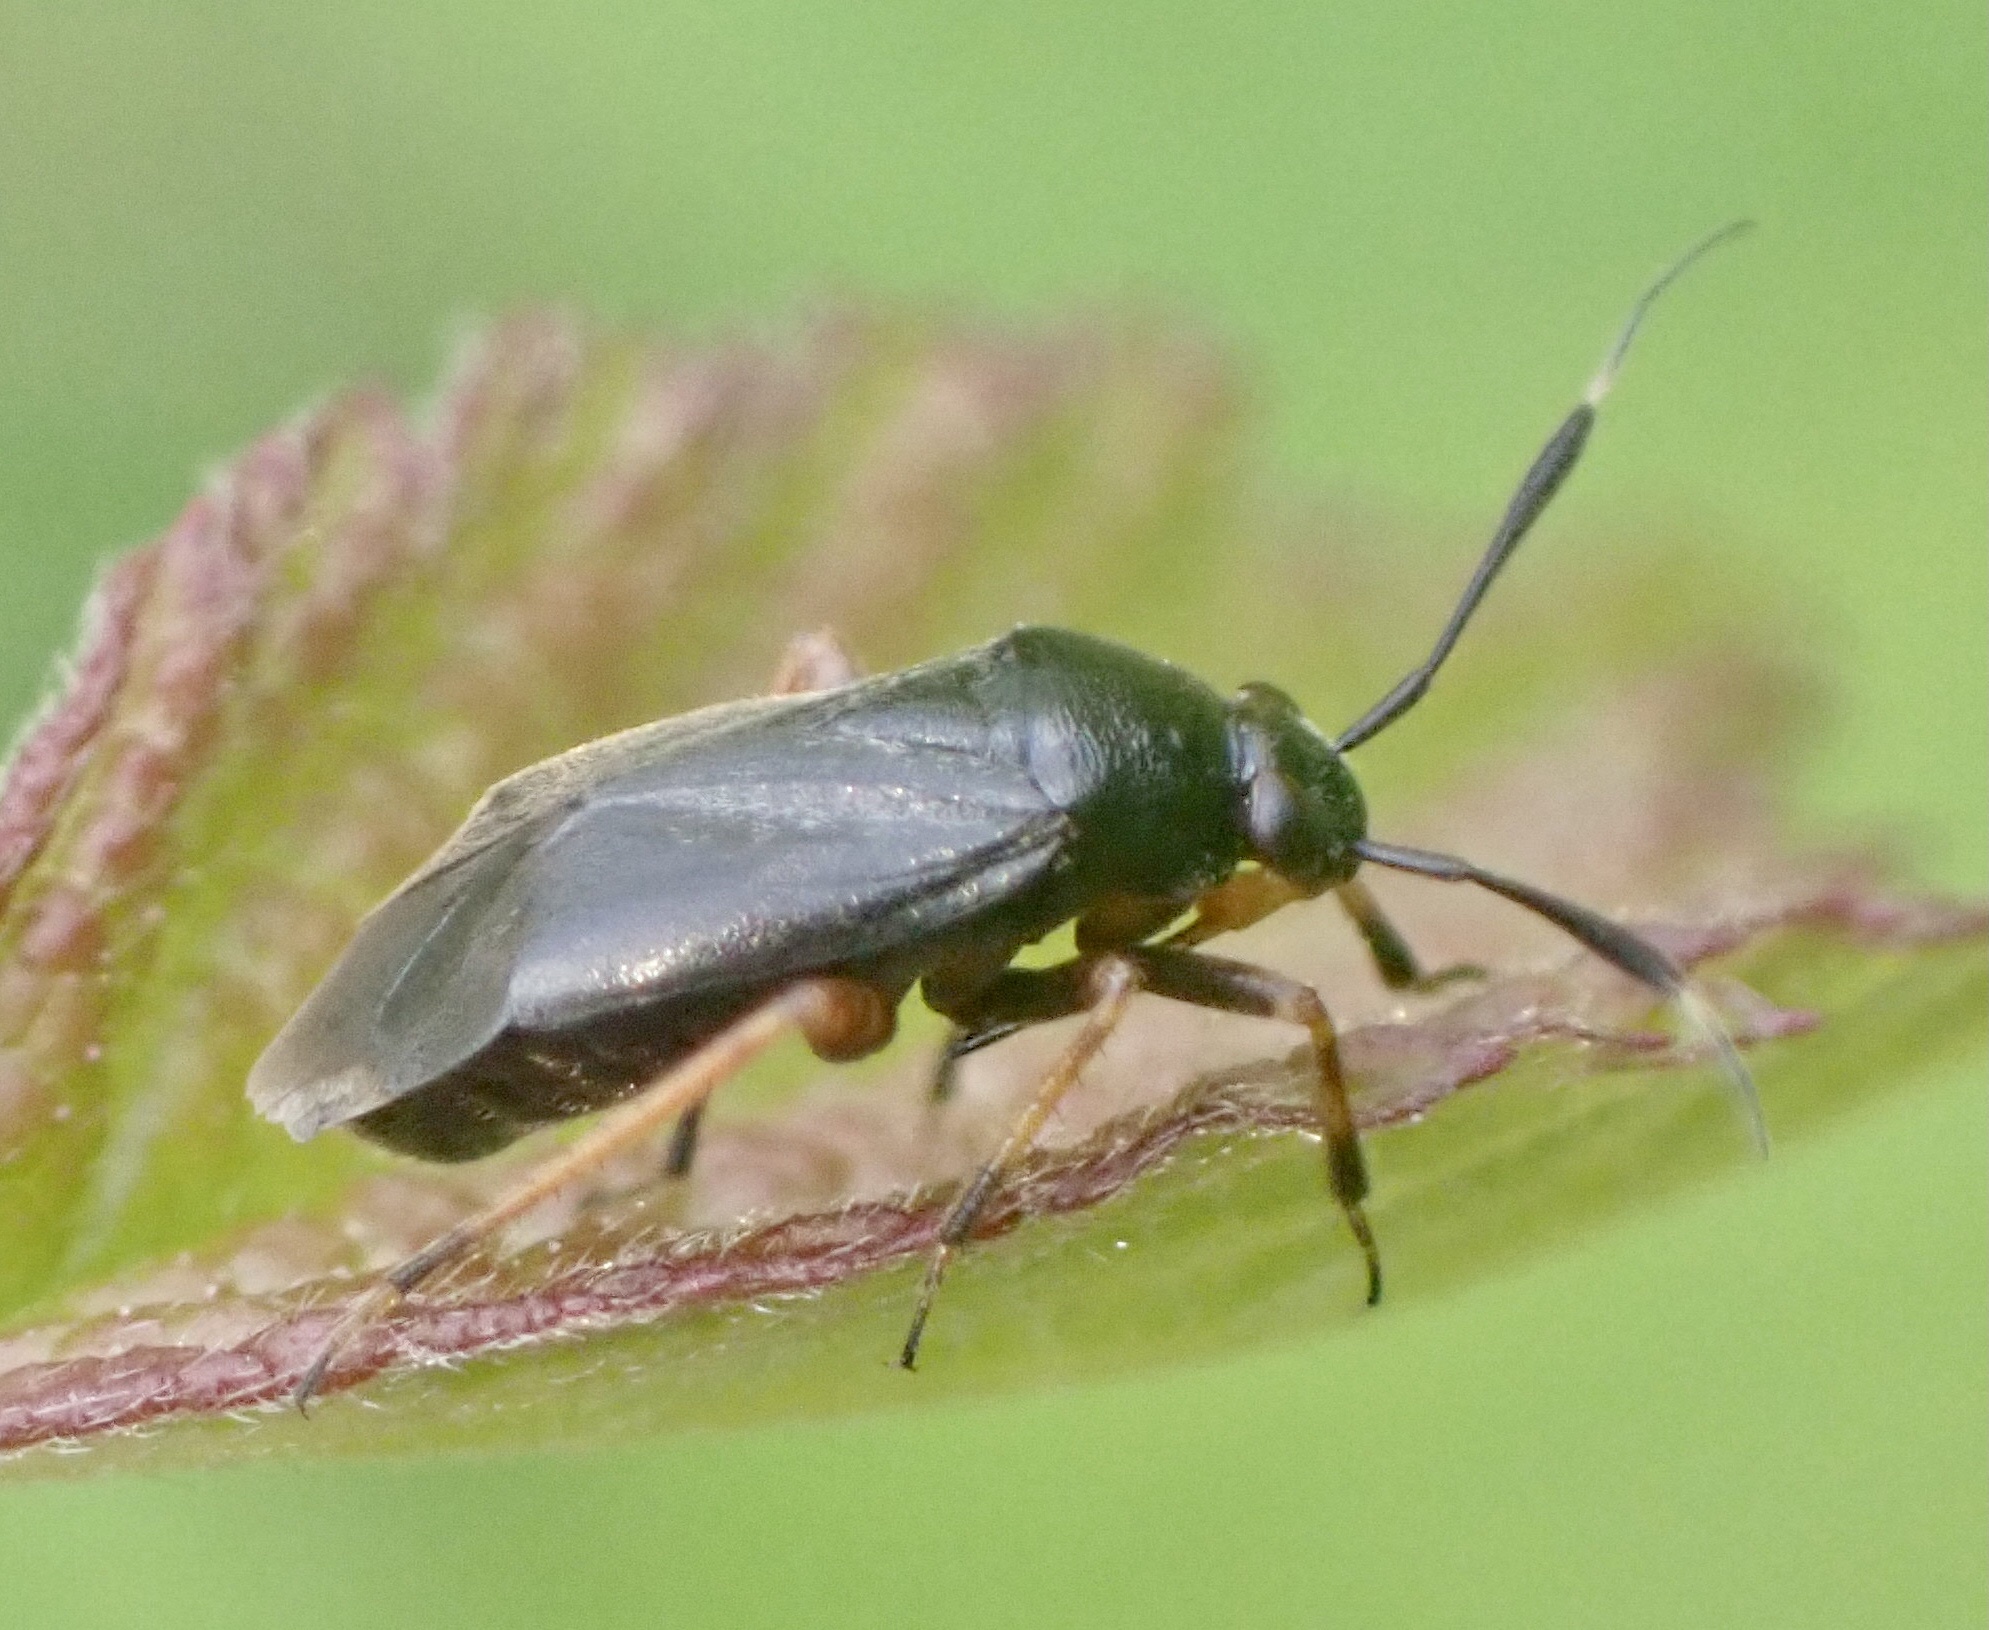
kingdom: Animalia
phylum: Arthropoda
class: Insecta
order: Hemiptera
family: Miridae
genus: Capsus
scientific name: Capsus ater
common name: Black plant bug
